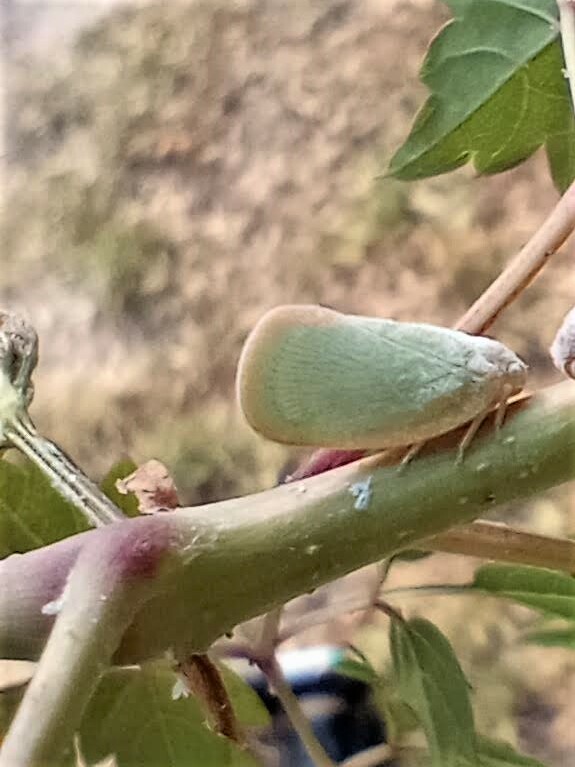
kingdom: Animalia
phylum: Arthropoda
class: Insecta
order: Hemiptera
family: Flatidae
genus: Ormenoides
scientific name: Ormenoides venusta
